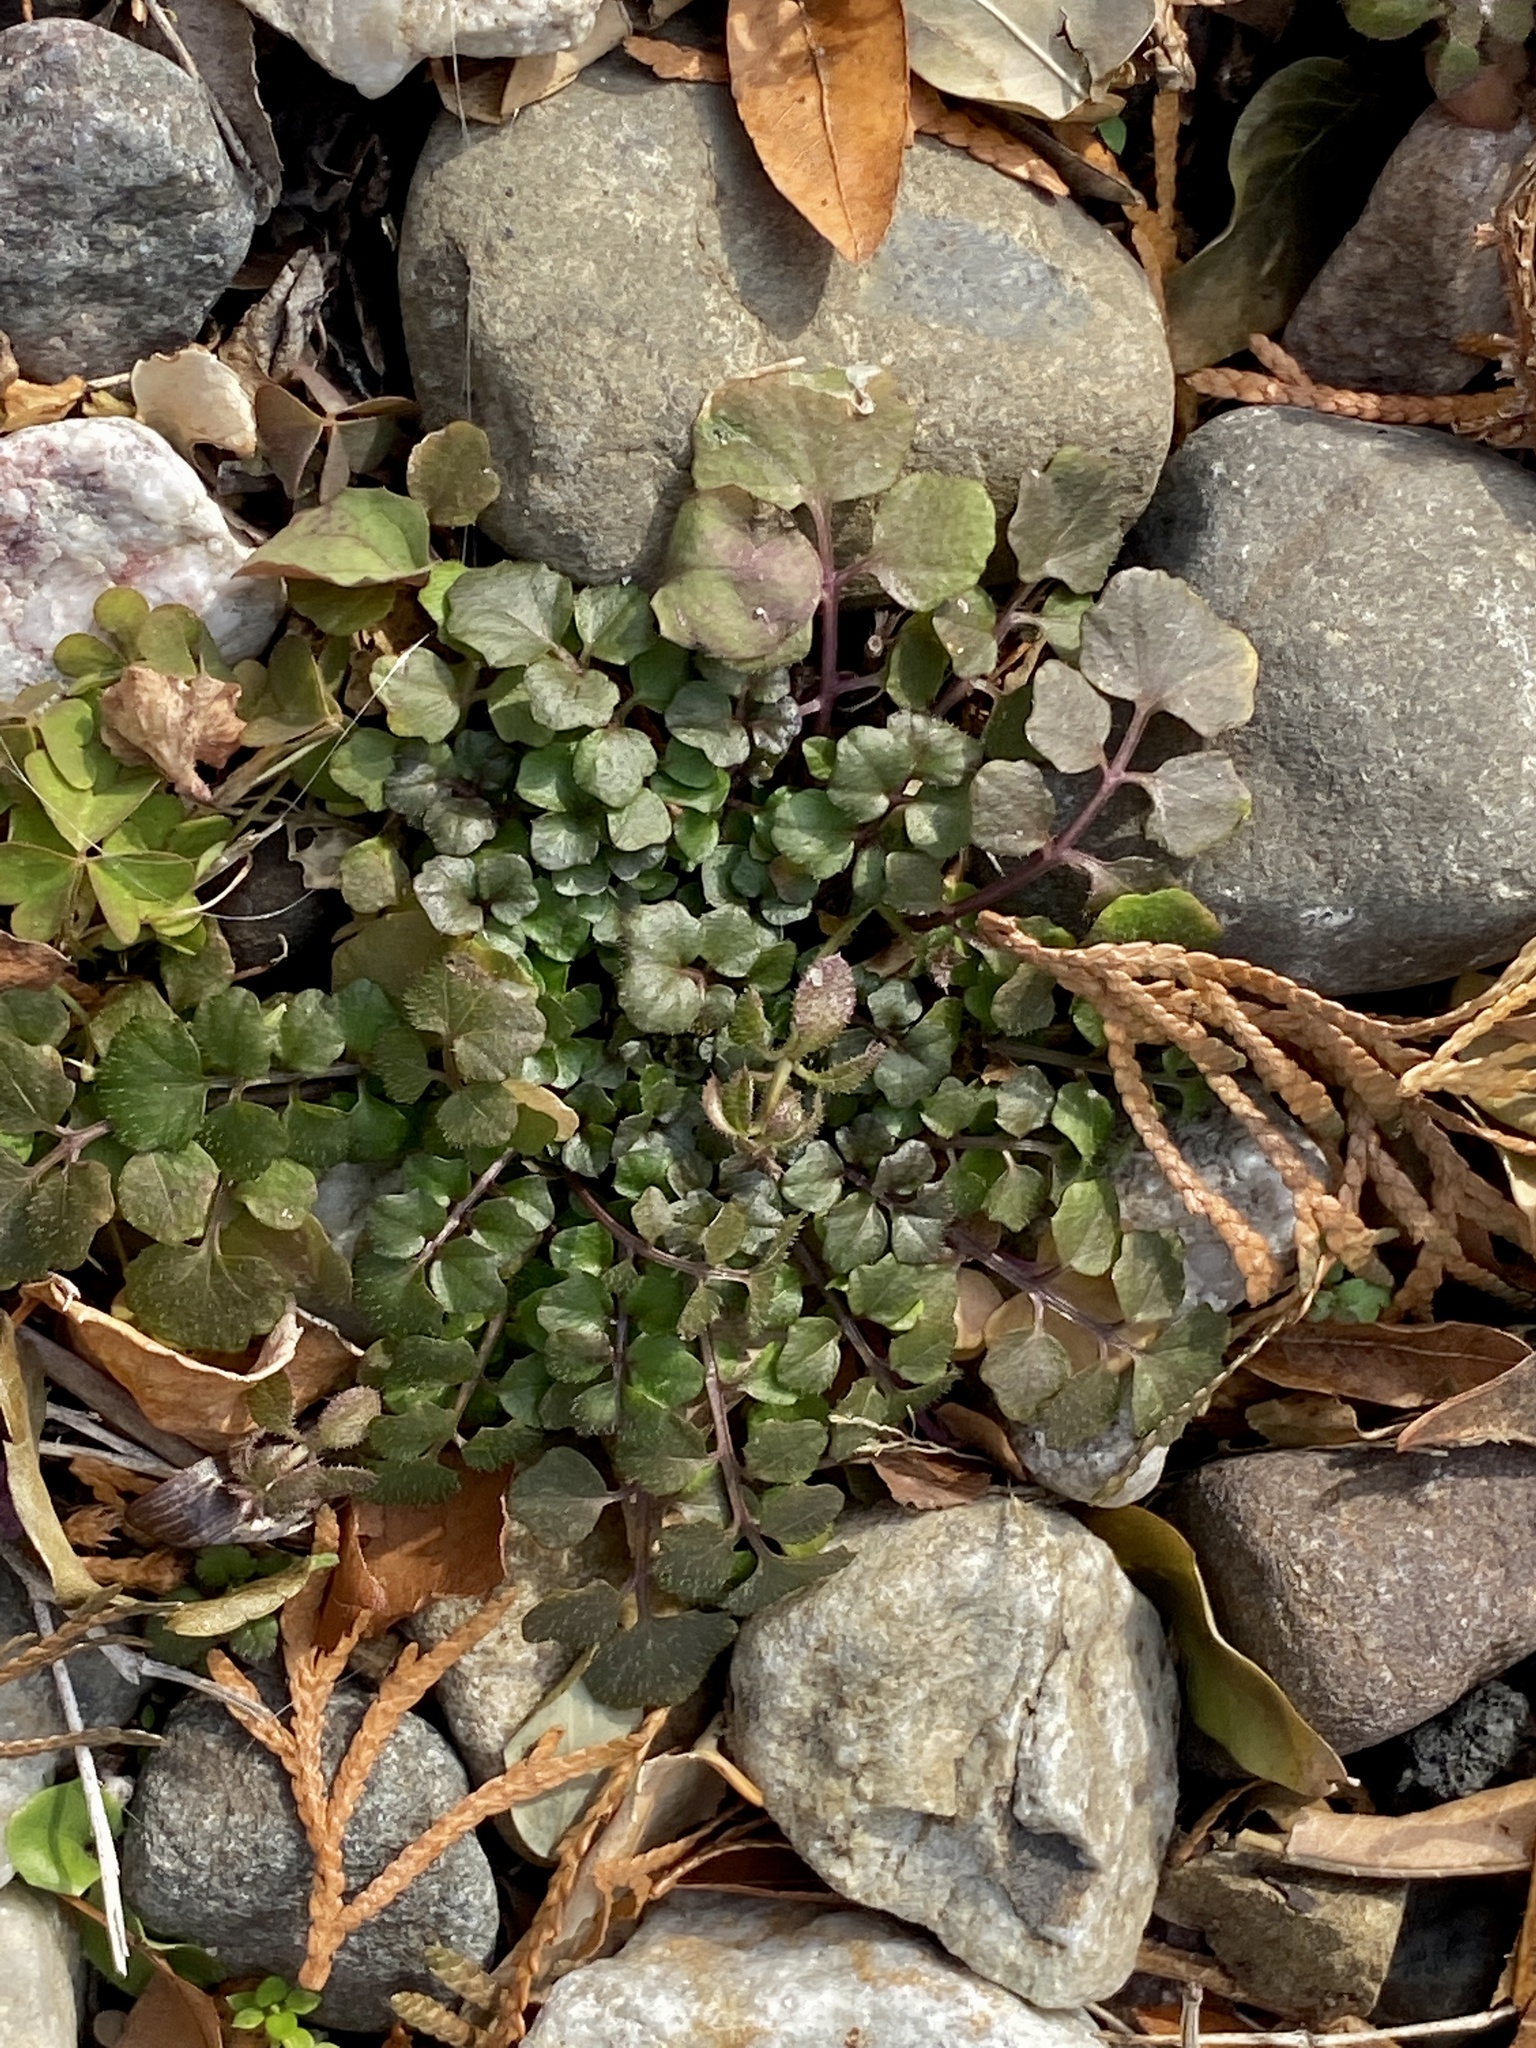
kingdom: Plantae
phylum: Tracheophyta
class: Magnoliopsida
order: Brassicales
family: Brassicaceae
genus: Cardamine
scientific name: Cardamine hirsuta
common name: Hairy bittercress
